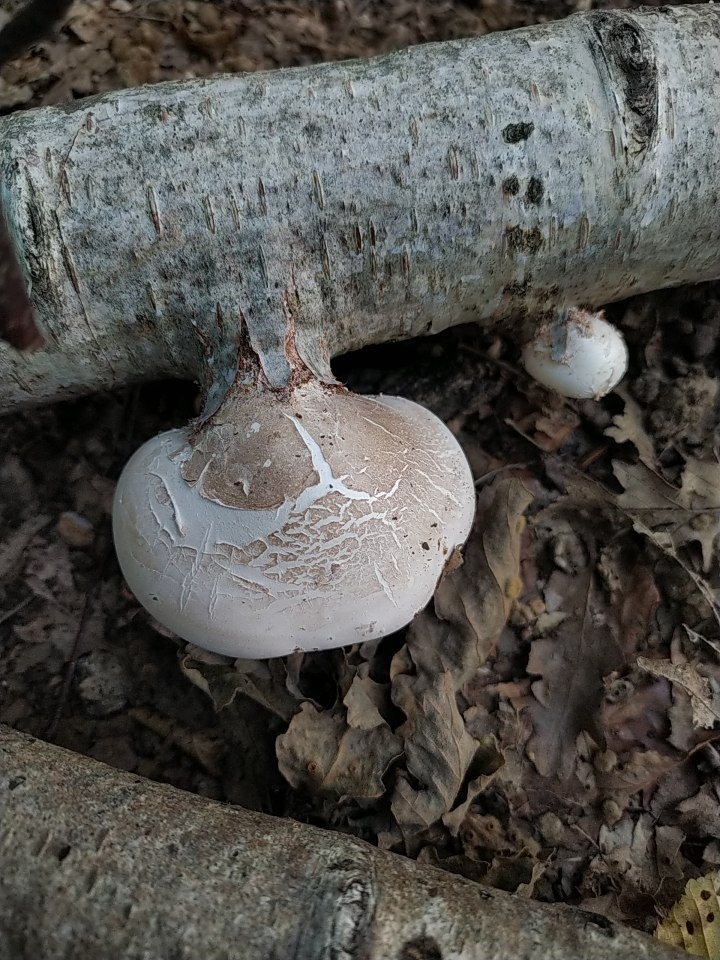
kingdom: Fungi
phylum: Basidiomycota
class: Agaricomycetes
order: Polyporales
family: Fomitopsidaceae
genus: Fomitopsis
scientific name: Fomitopsis betulina
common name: Birch polypore
